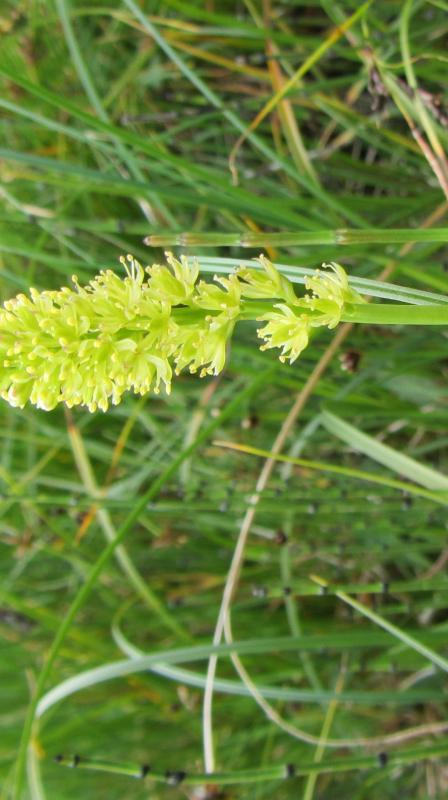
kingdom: Plantae
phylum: Tracheophyta
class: Liliopsida
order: Alismatales
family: Tofieldiaceae
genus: Tofieldia
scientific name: Tofieldia calyculata
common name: German-asphodel
